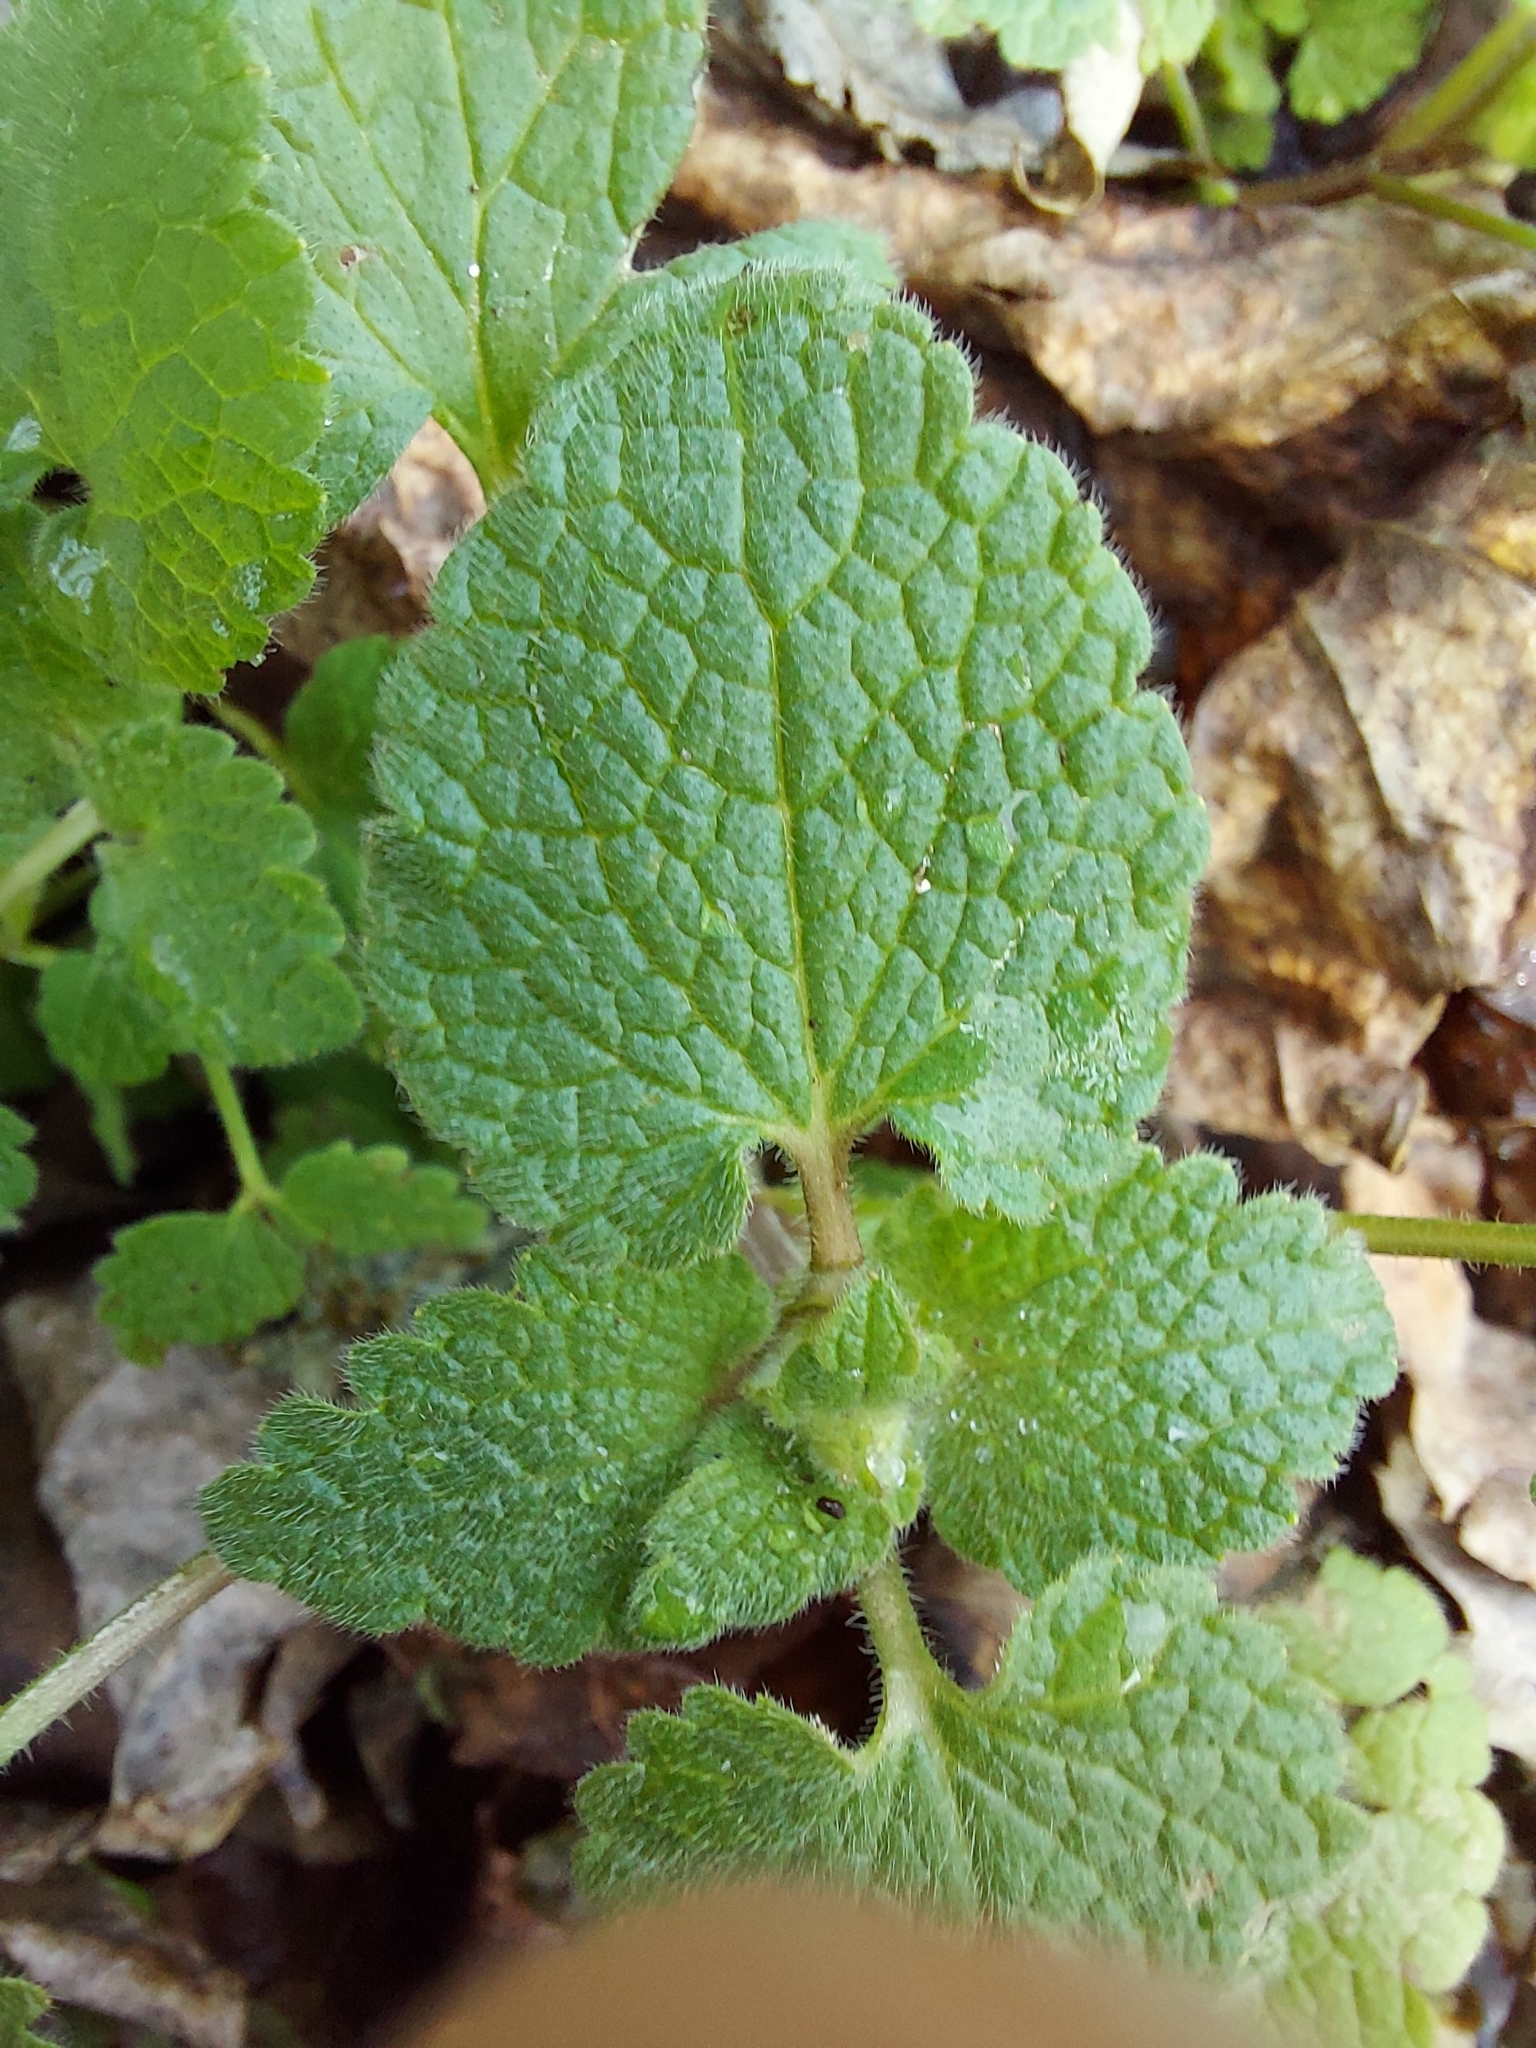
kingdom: Plantae
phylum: Tracheophyta
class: Magnoliopsida
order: Lamiales
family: Lamiaceae
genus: Lamium
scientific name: Lamium purpureum
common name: Red dead-nettle
